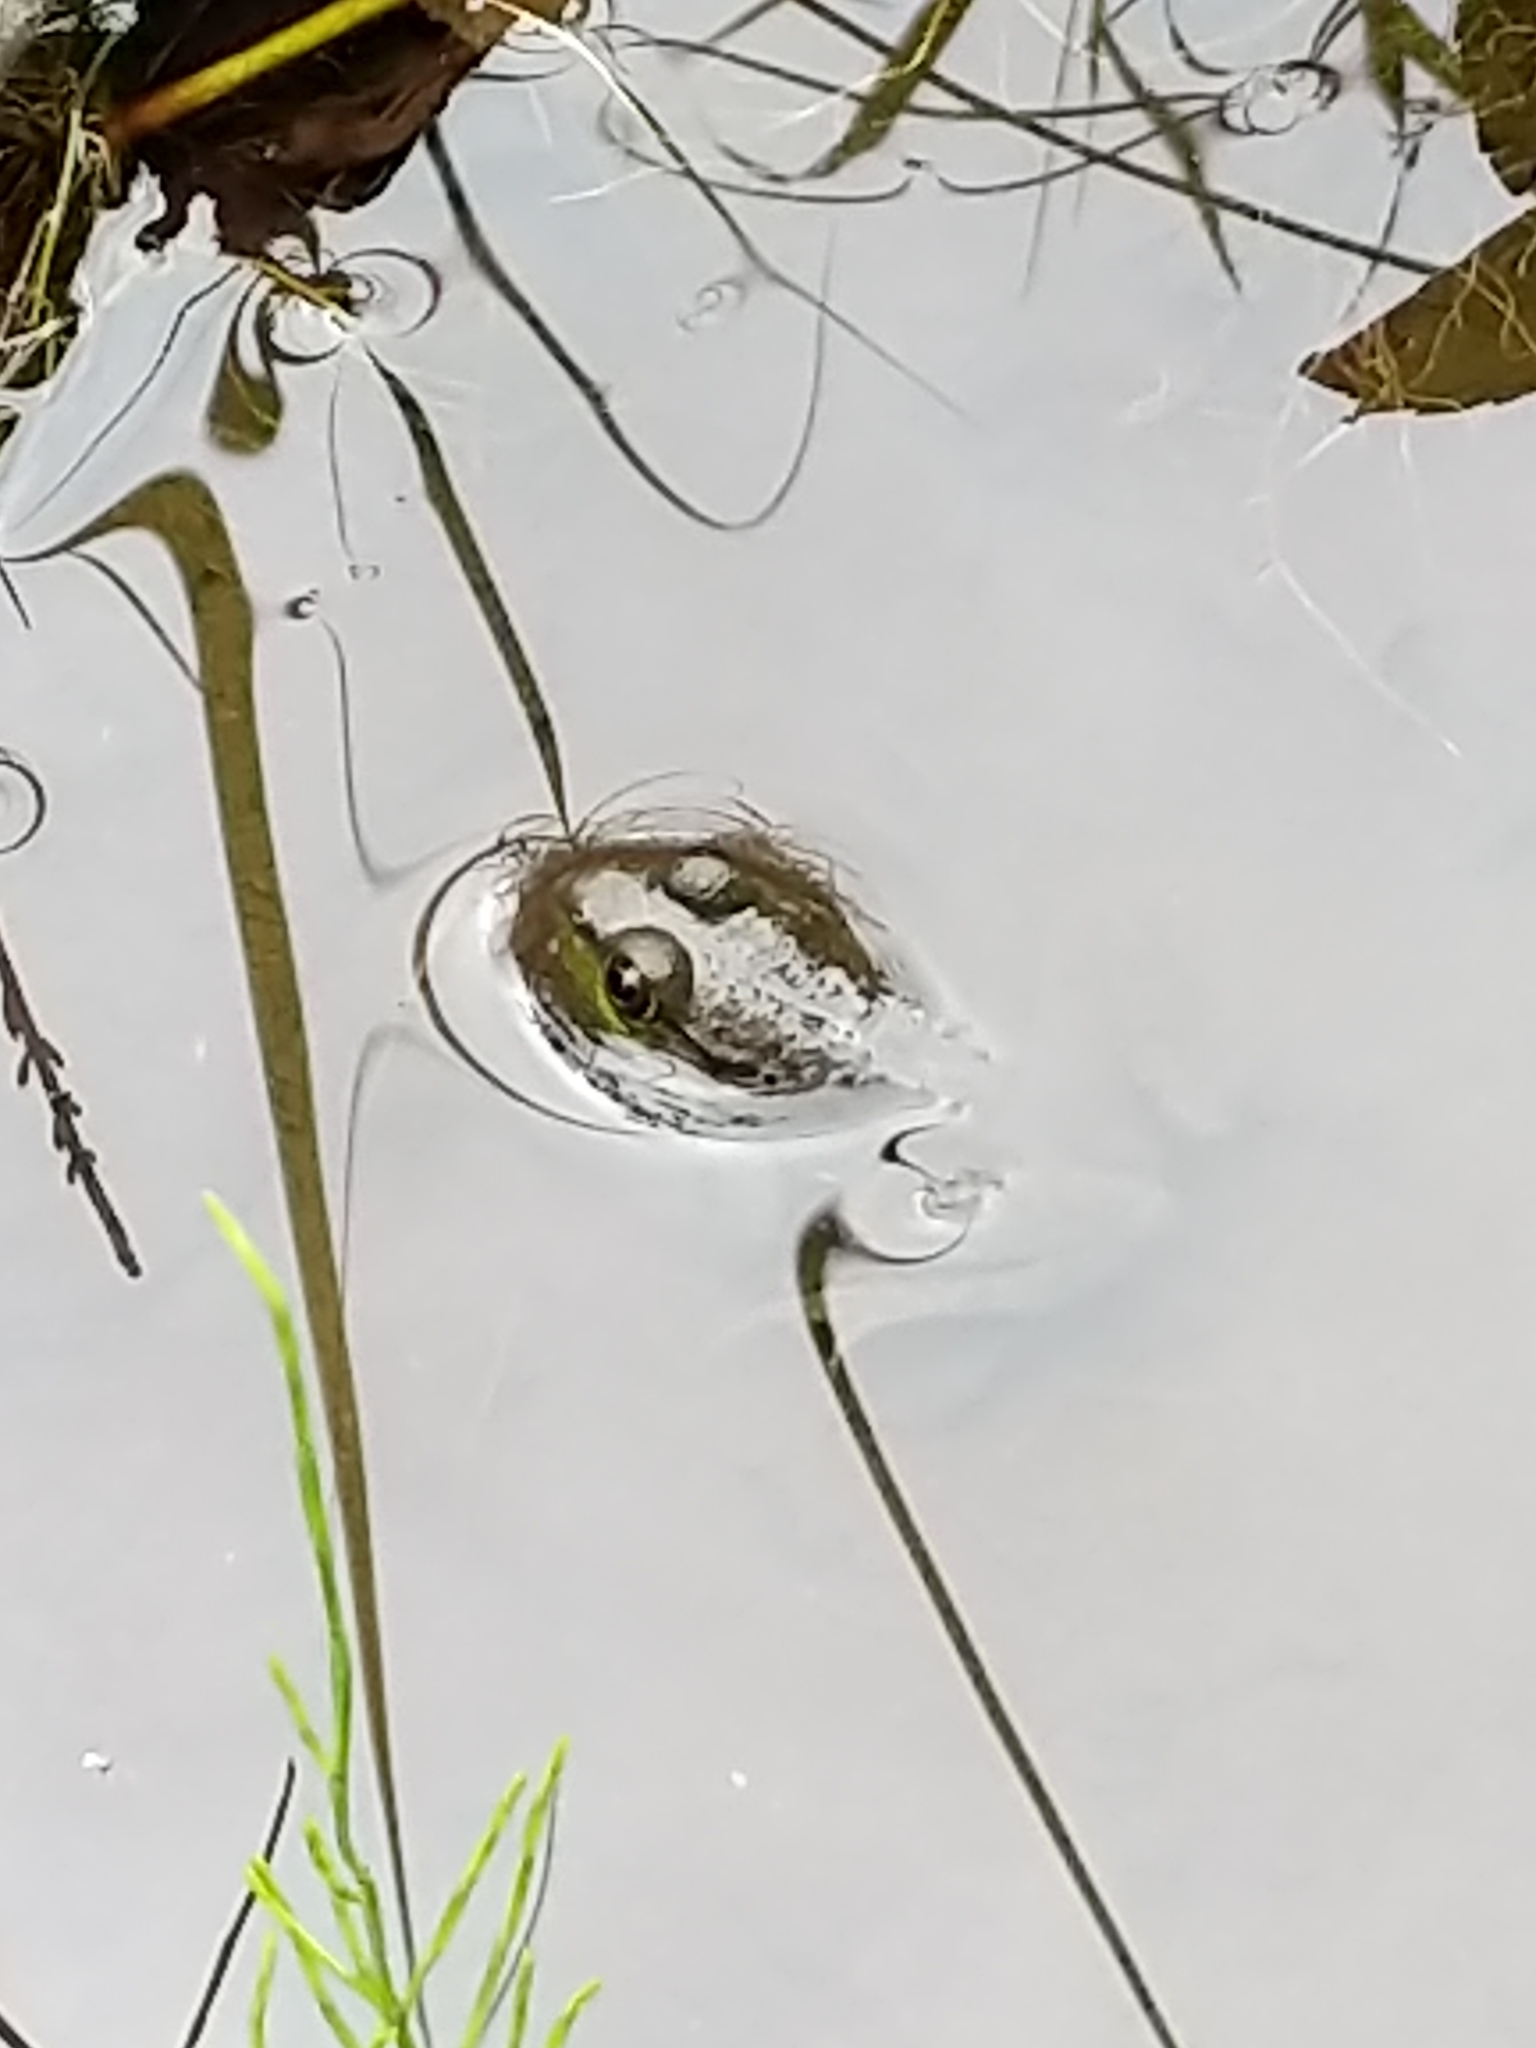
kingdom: Animalia
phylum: Chordata
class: Amphibia
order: Anura
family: Ranidae
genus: Lithobates
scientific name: Lithobates clamitans
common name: Green frog
